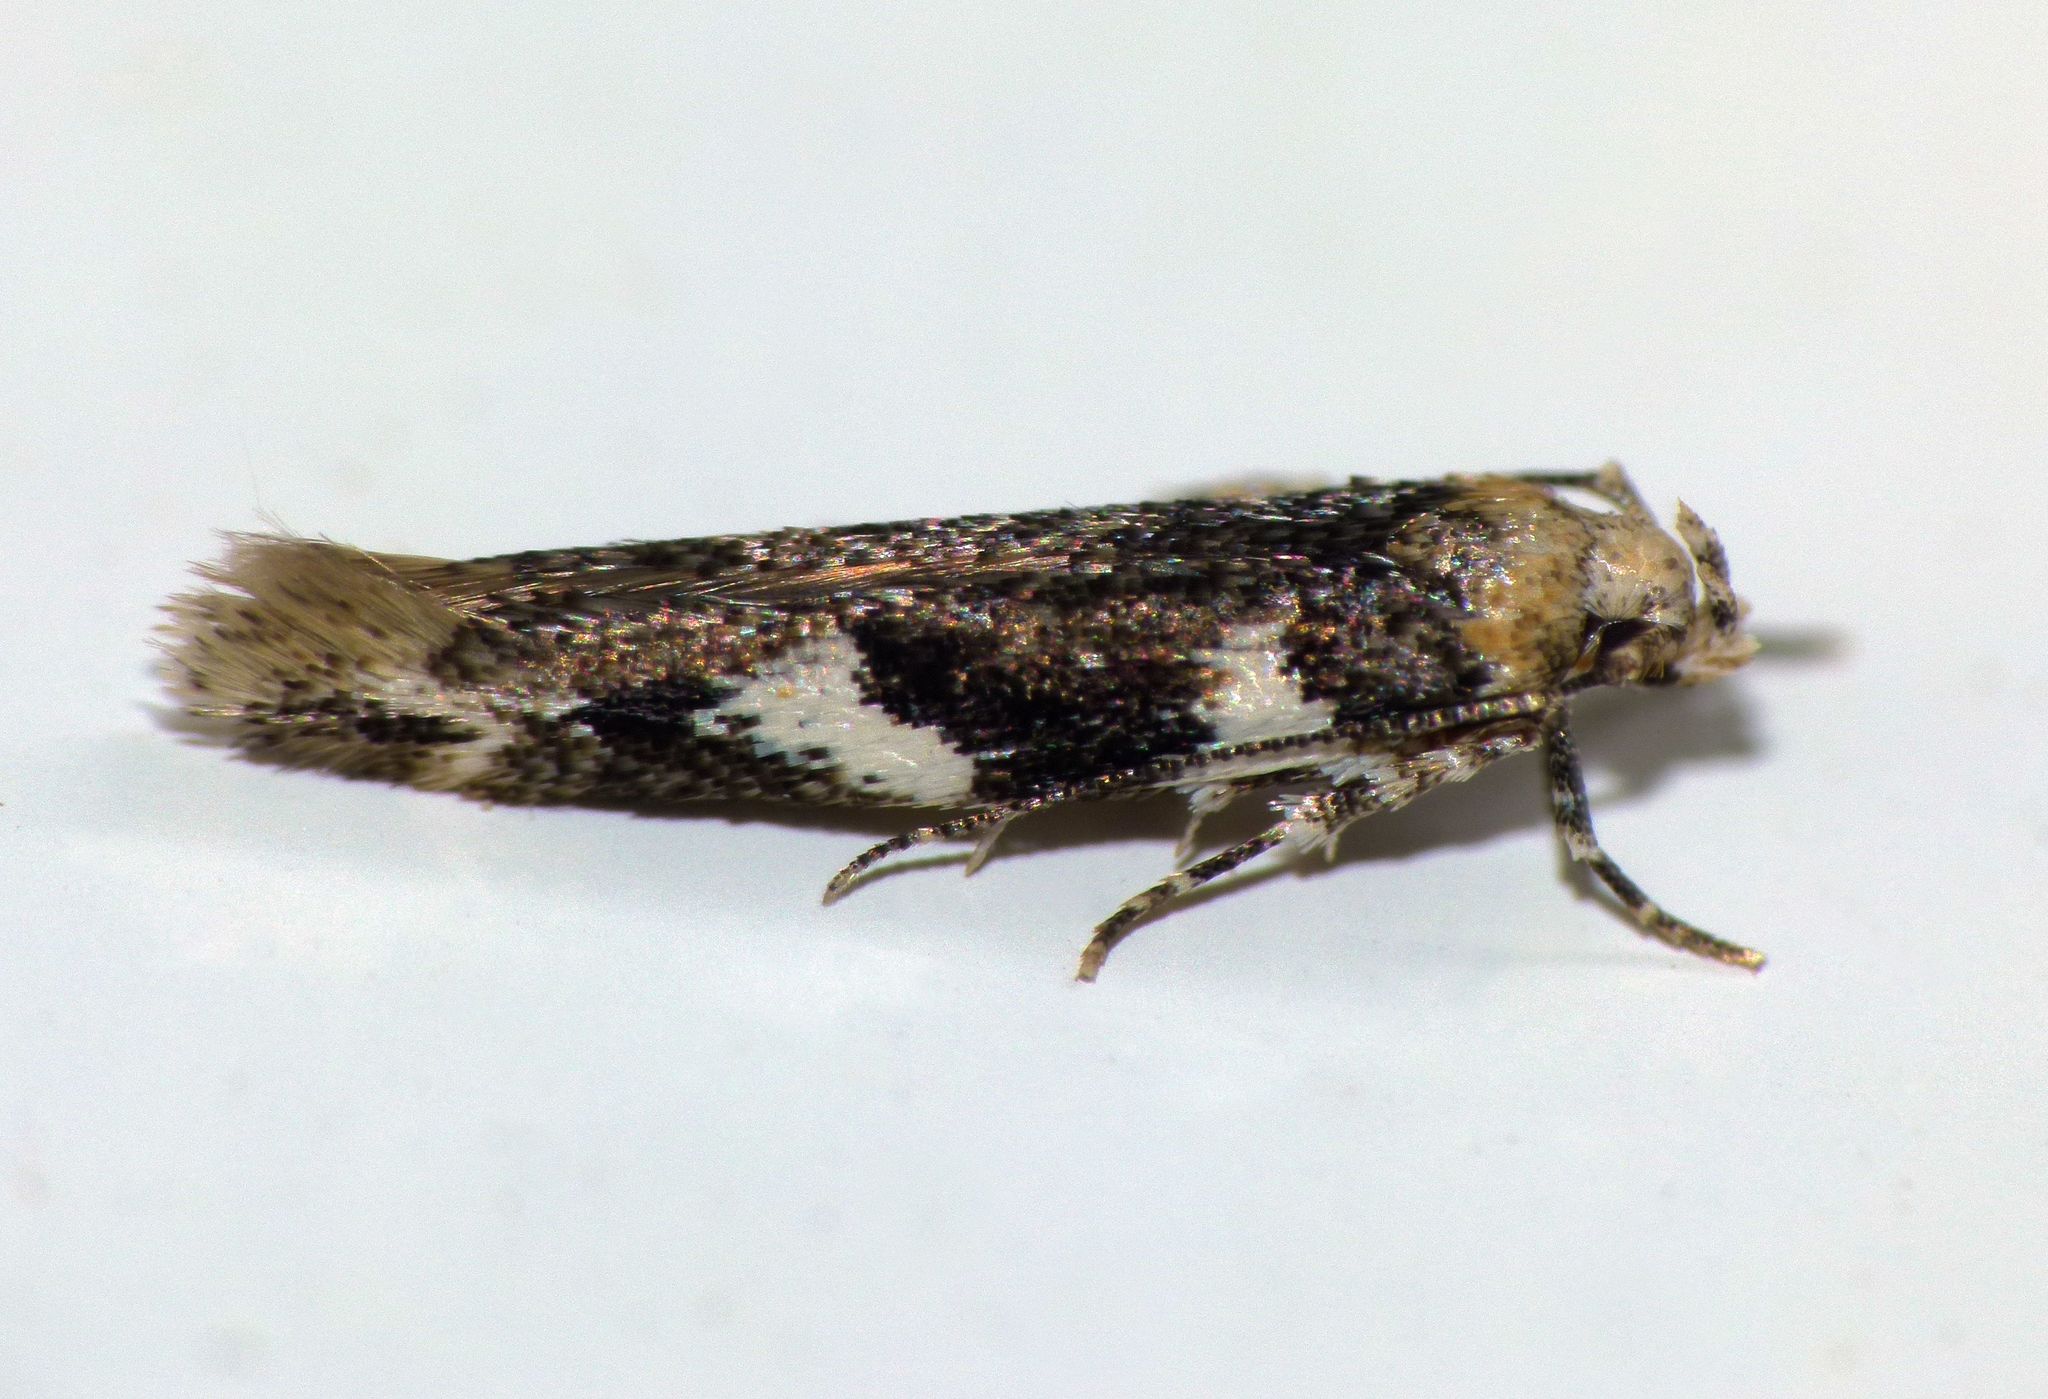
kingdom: Animalia
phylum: Arthropoda
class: Insecta
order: Lepidoptera
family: Cosmopterigidae
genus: Pyroderces
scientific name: Pyroderces deamatella
